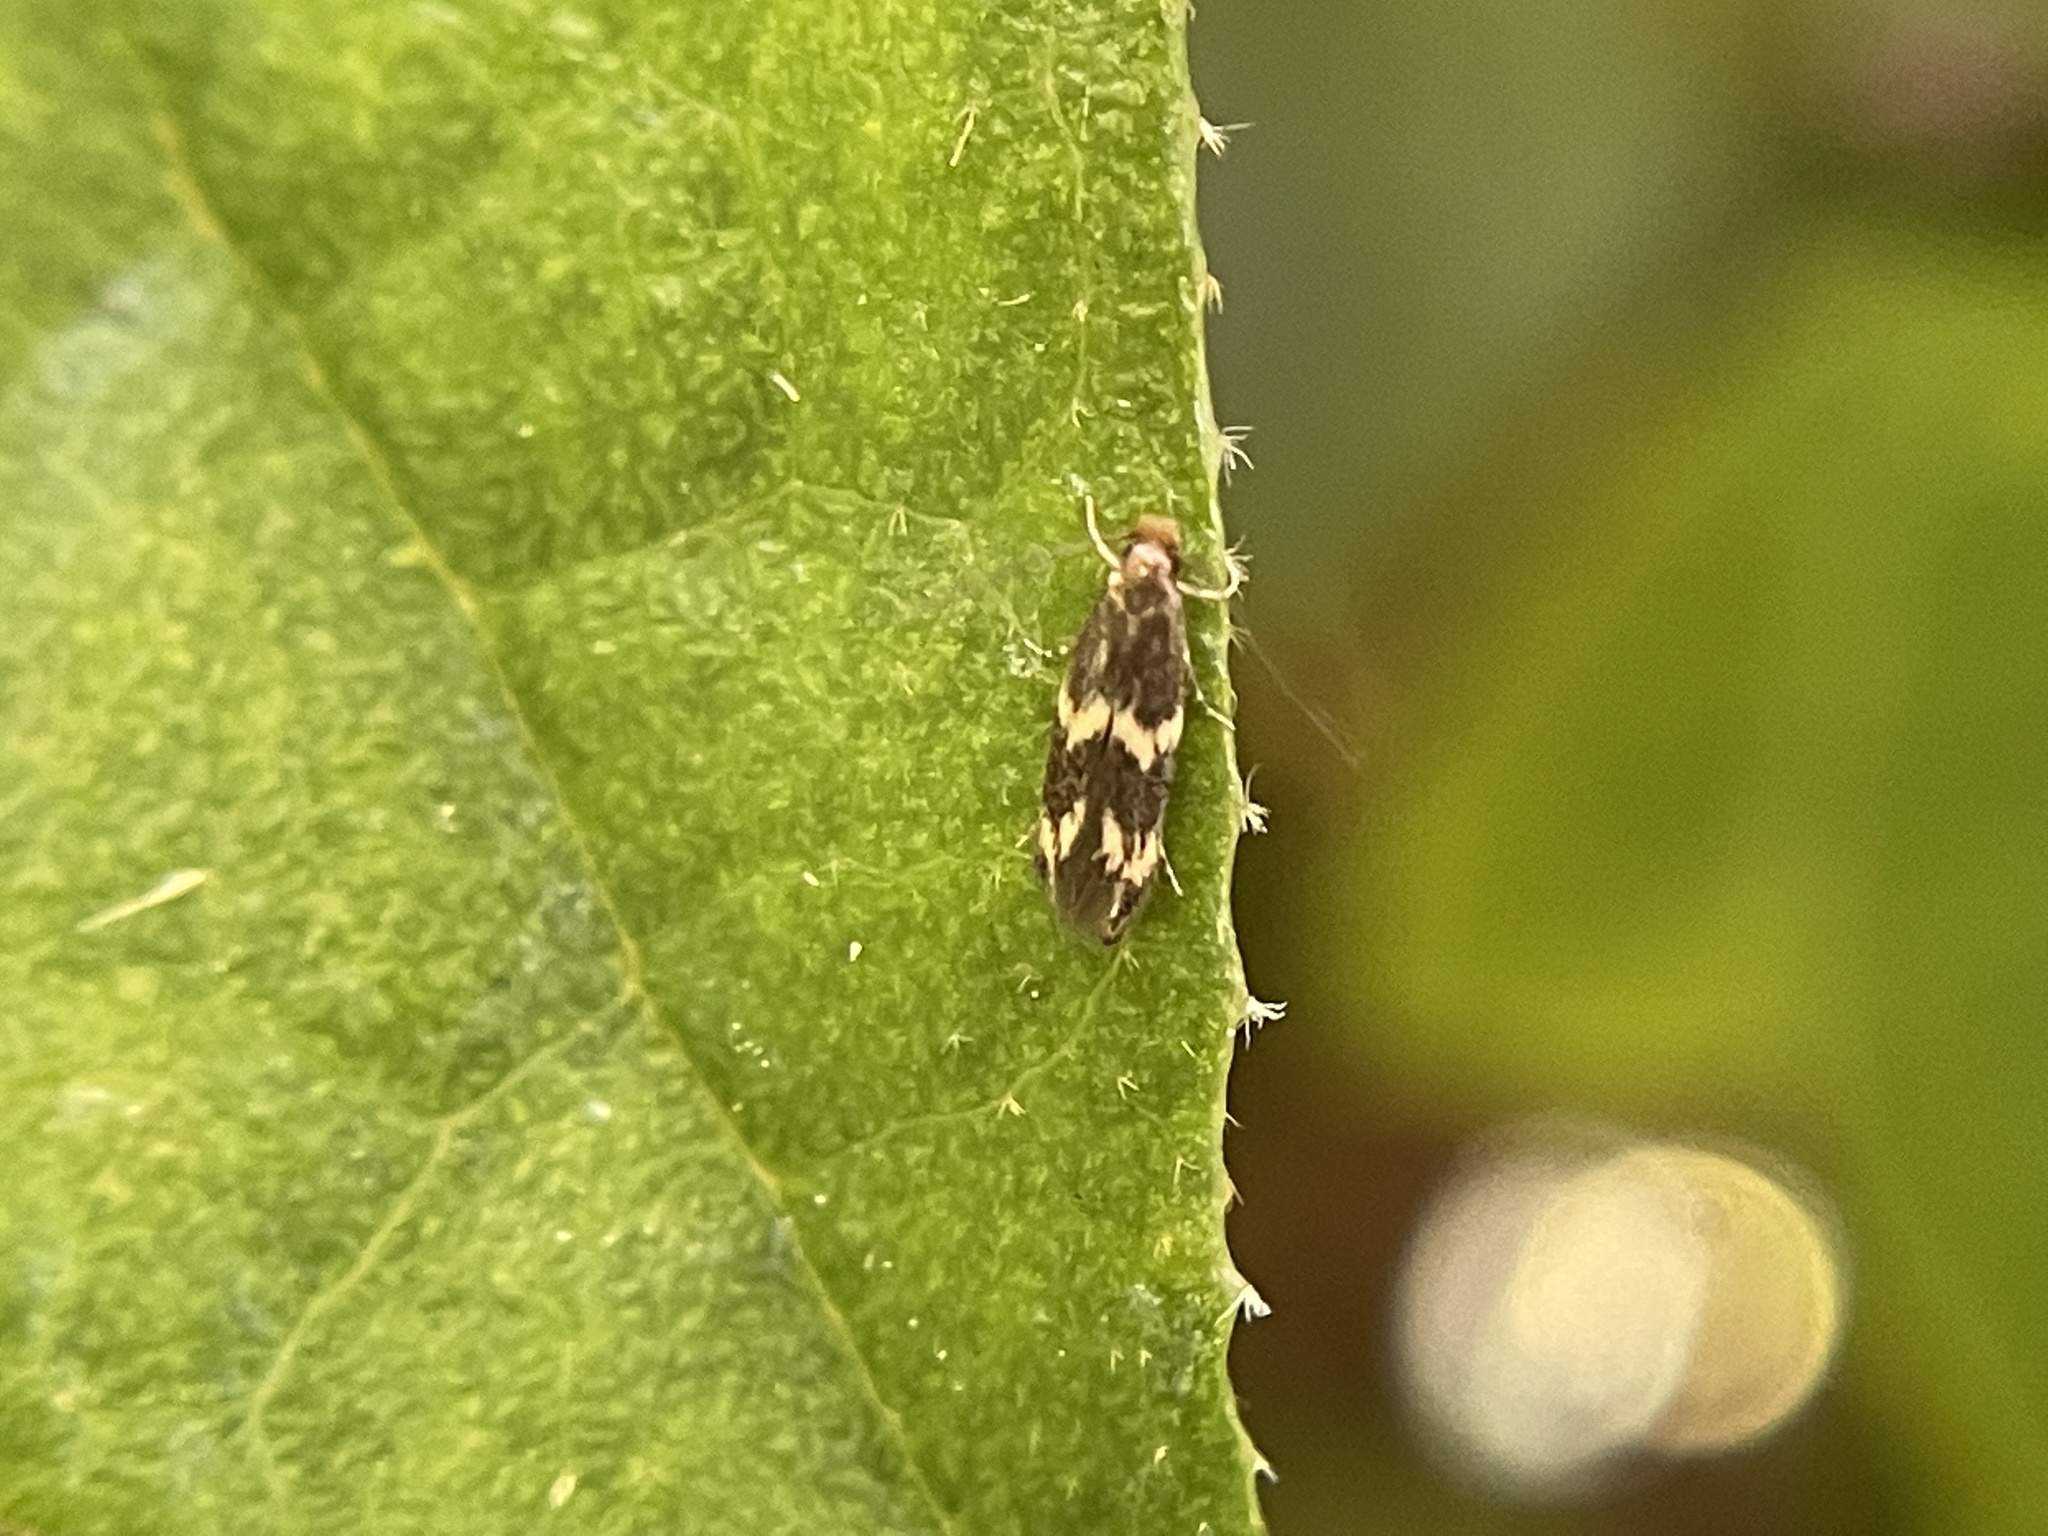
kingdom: Animalia
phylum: Arthropoda
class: Insecta
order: Lepidoptera
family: Tineidae
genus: Oinophila
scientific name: Oinophila v-flava
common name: Yellow v moth
